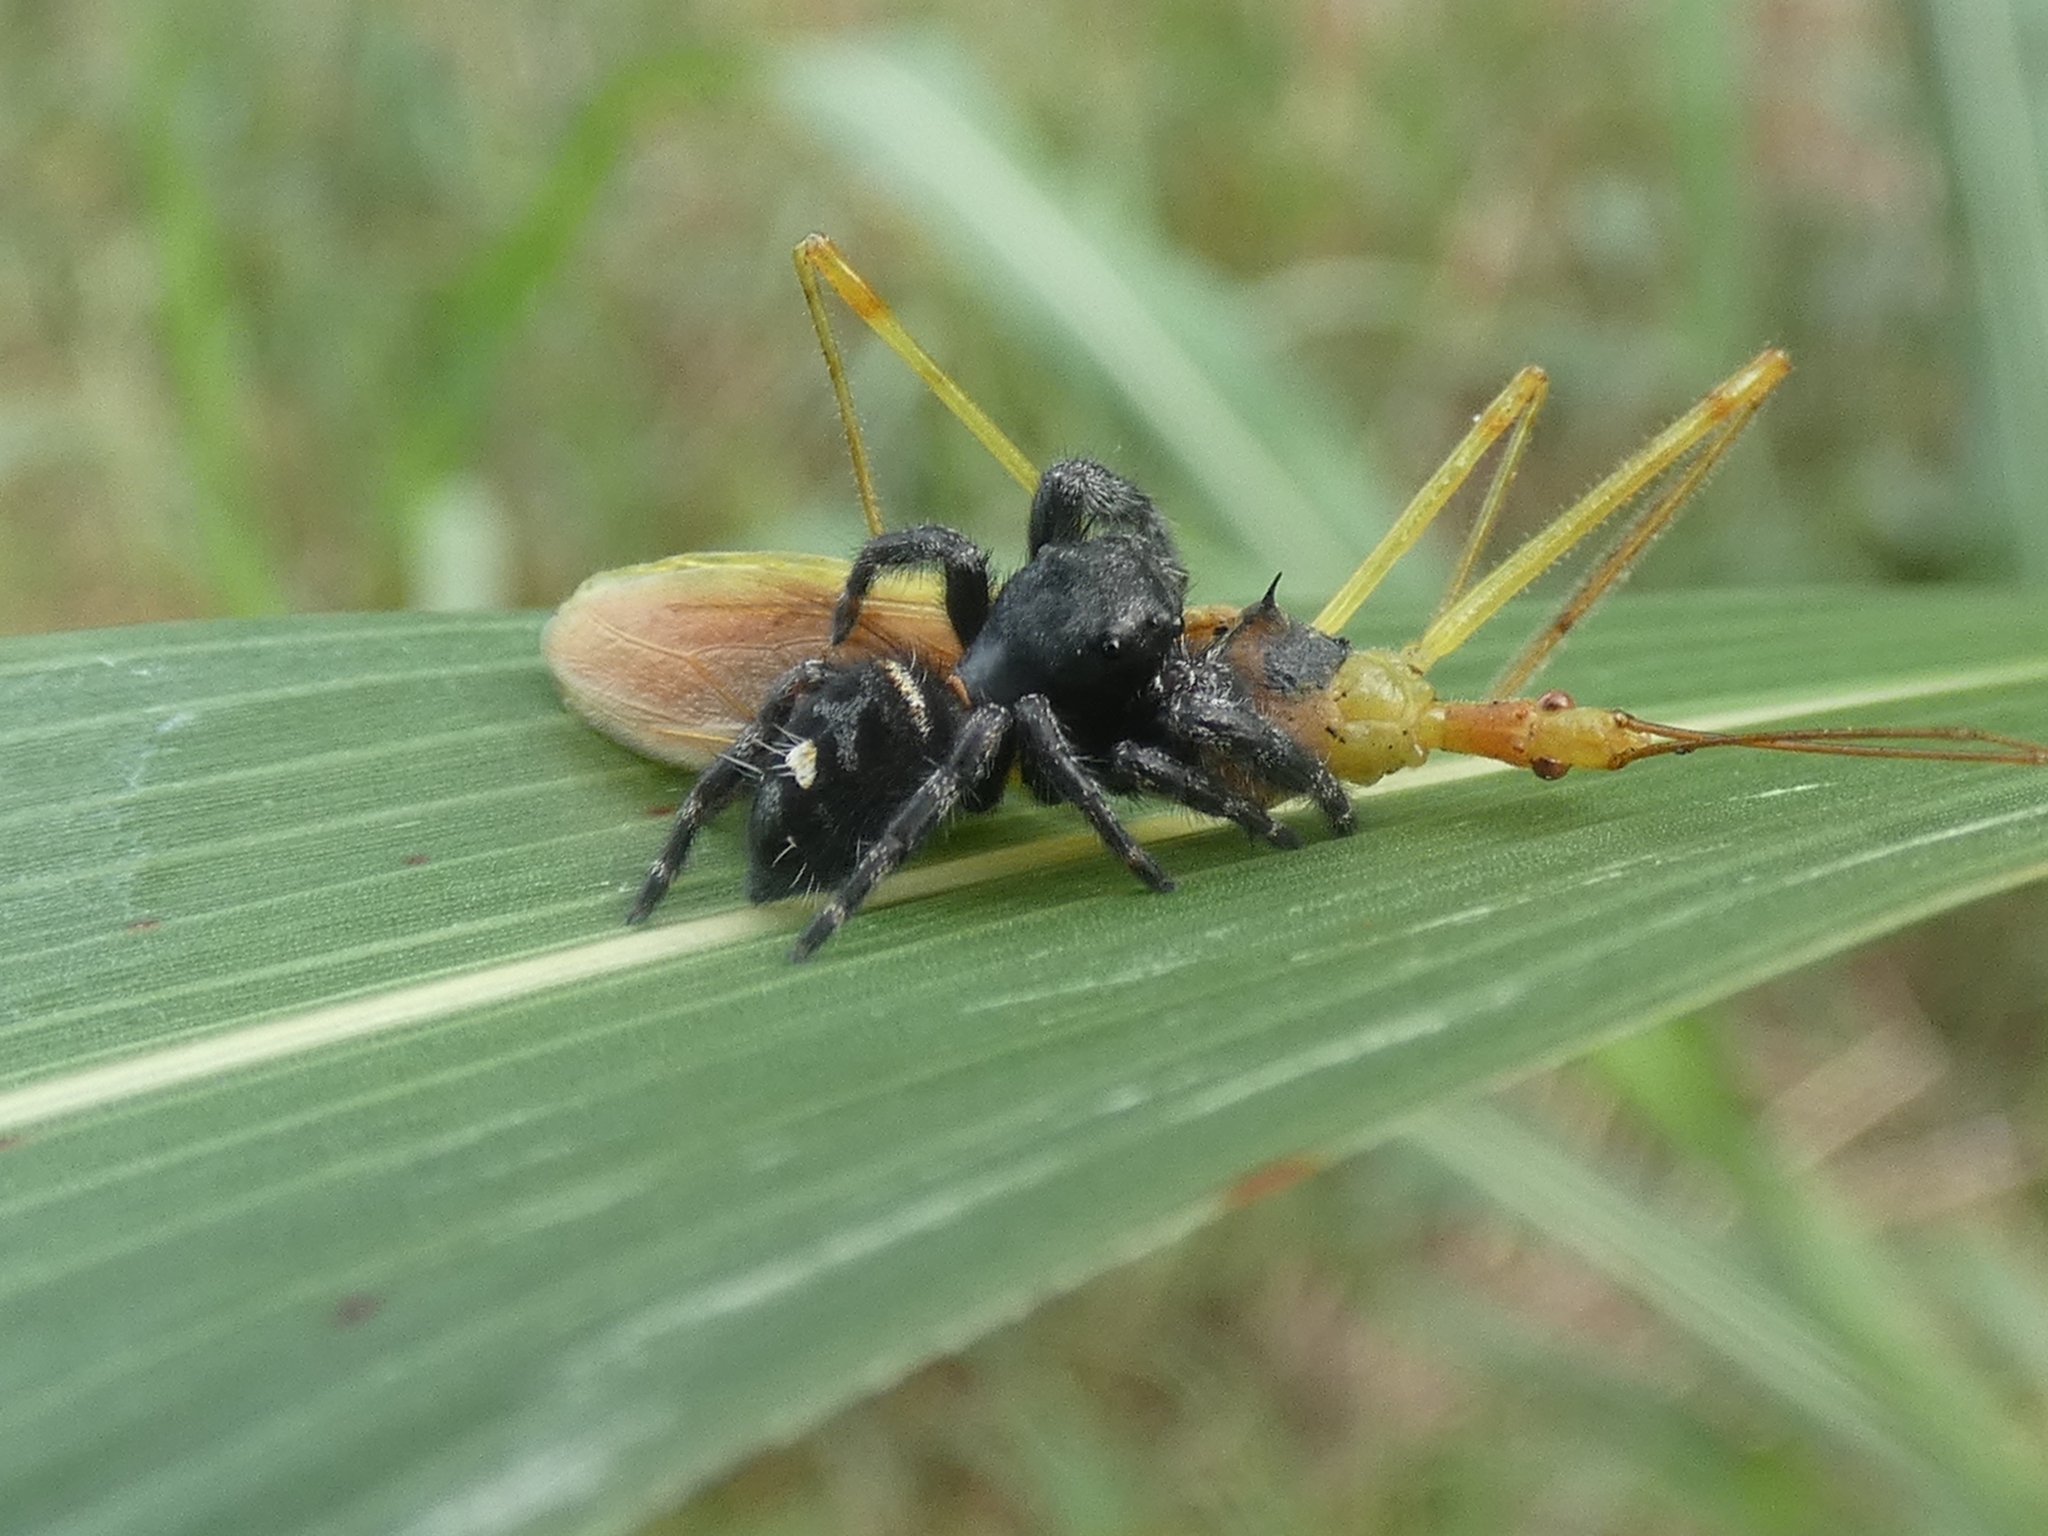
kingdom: Animalia
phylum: Arthropoda
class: Insecta
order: Hemiptera
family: Reduviidae
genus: Zelus
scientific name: Zelus luridus
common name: Pale green assassin bug
